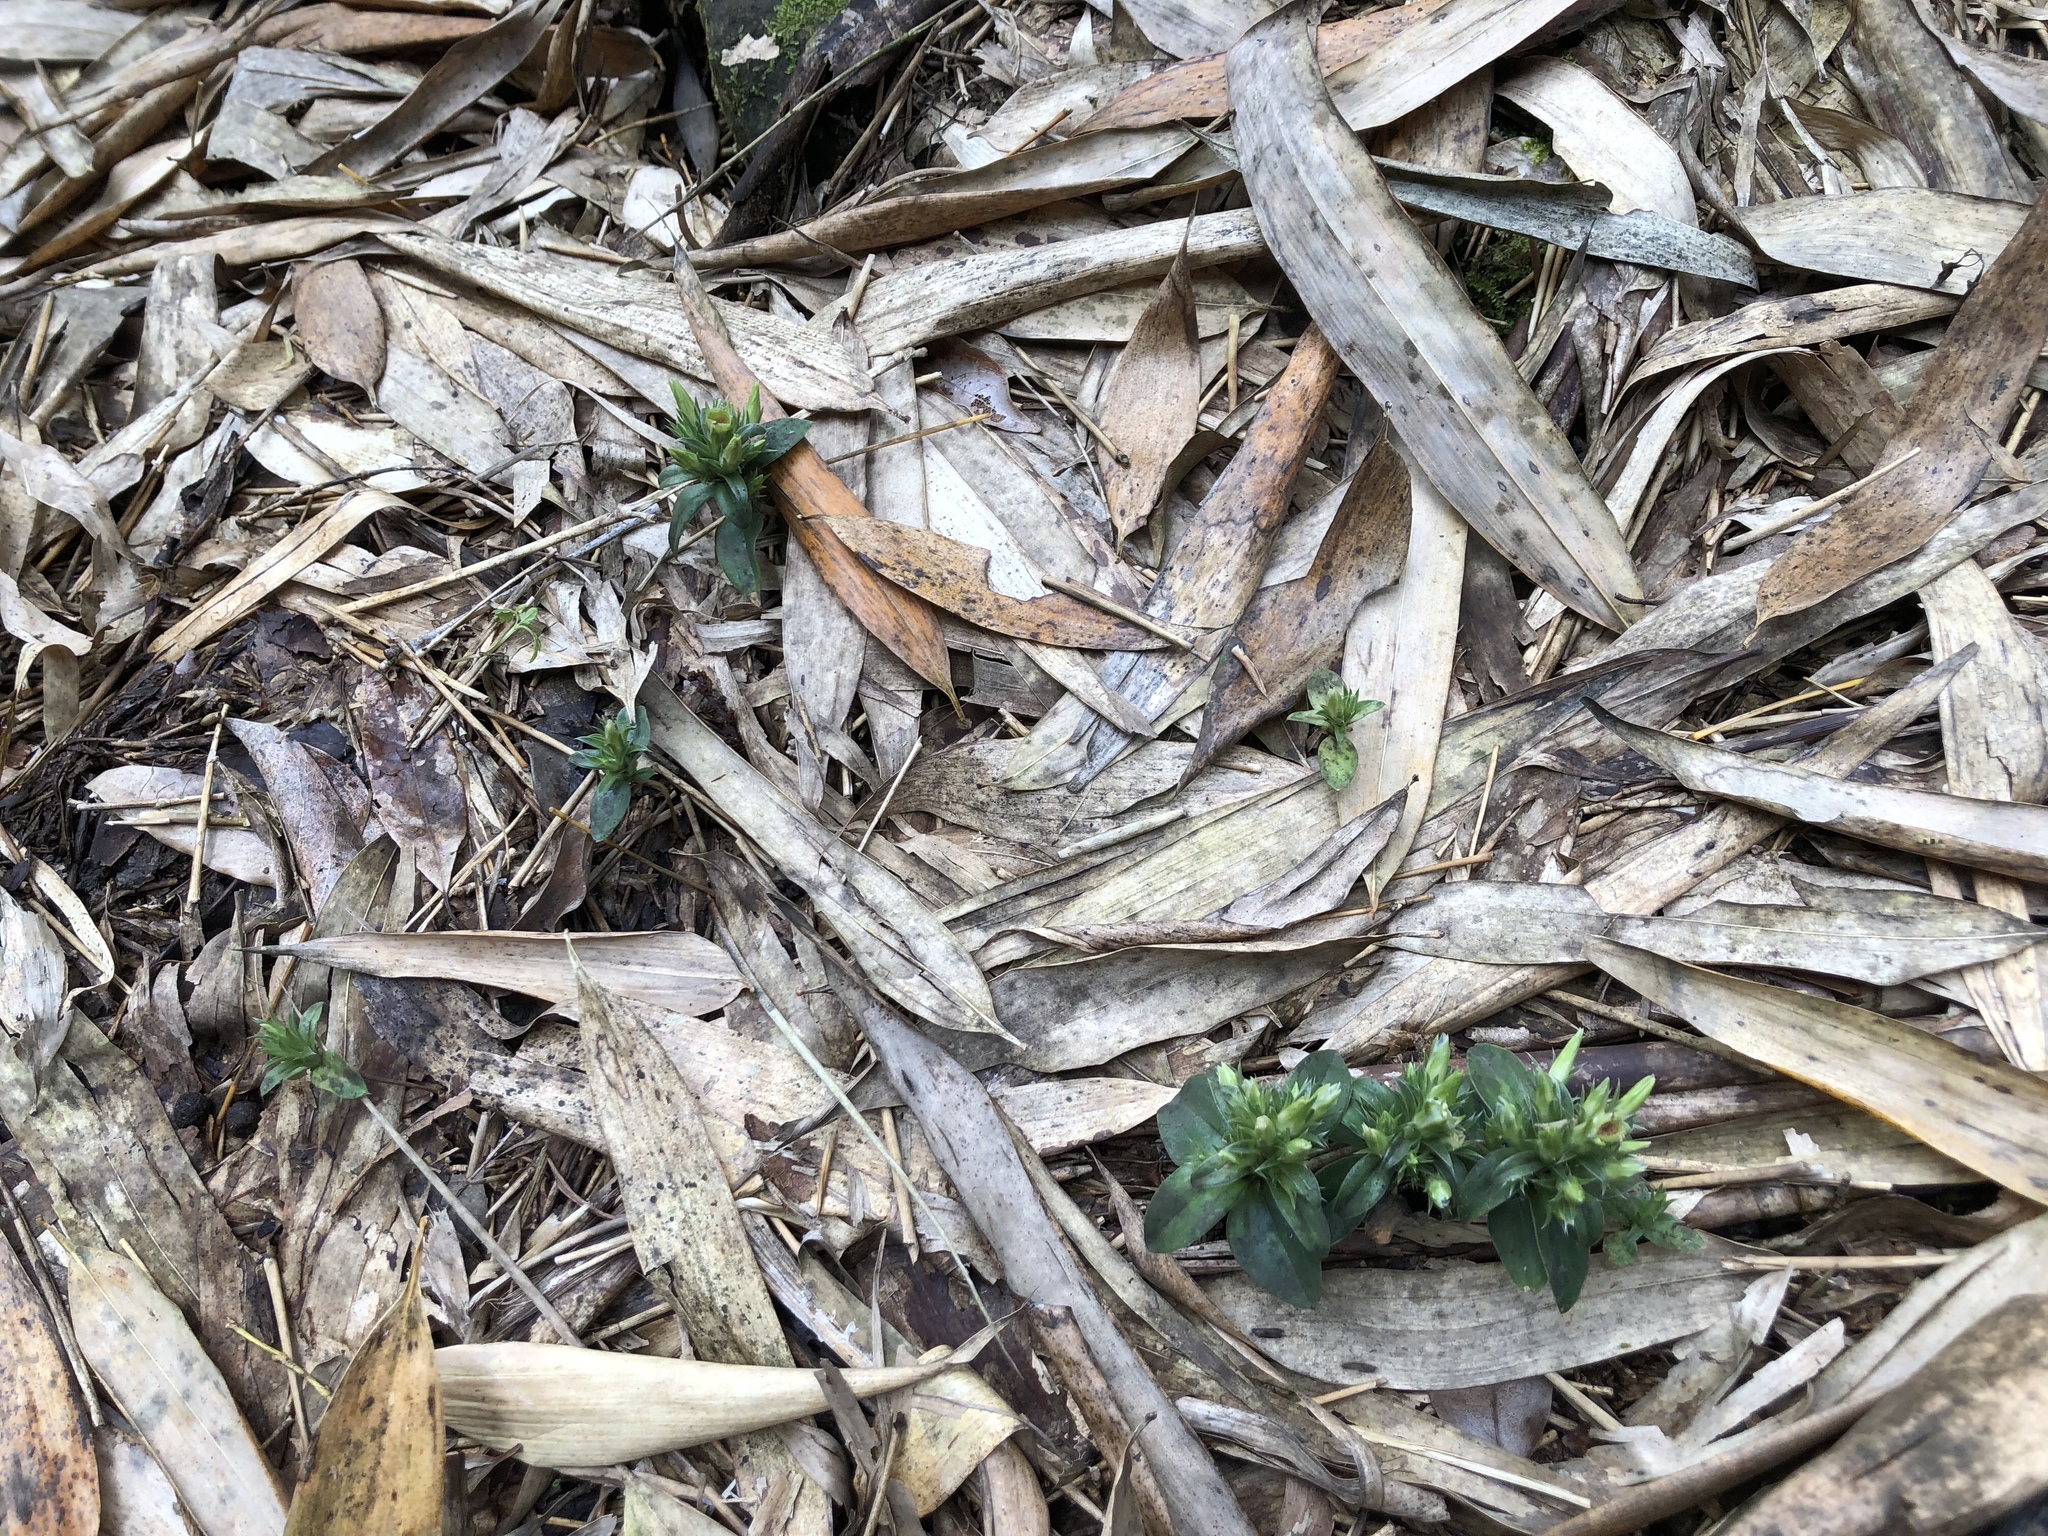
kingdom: Plantae
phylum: Tracheophyta
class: Magnoliopsida
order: Gentianales
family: Gentianaceae
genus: Gentiana
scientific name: Gentiana bambuseti
